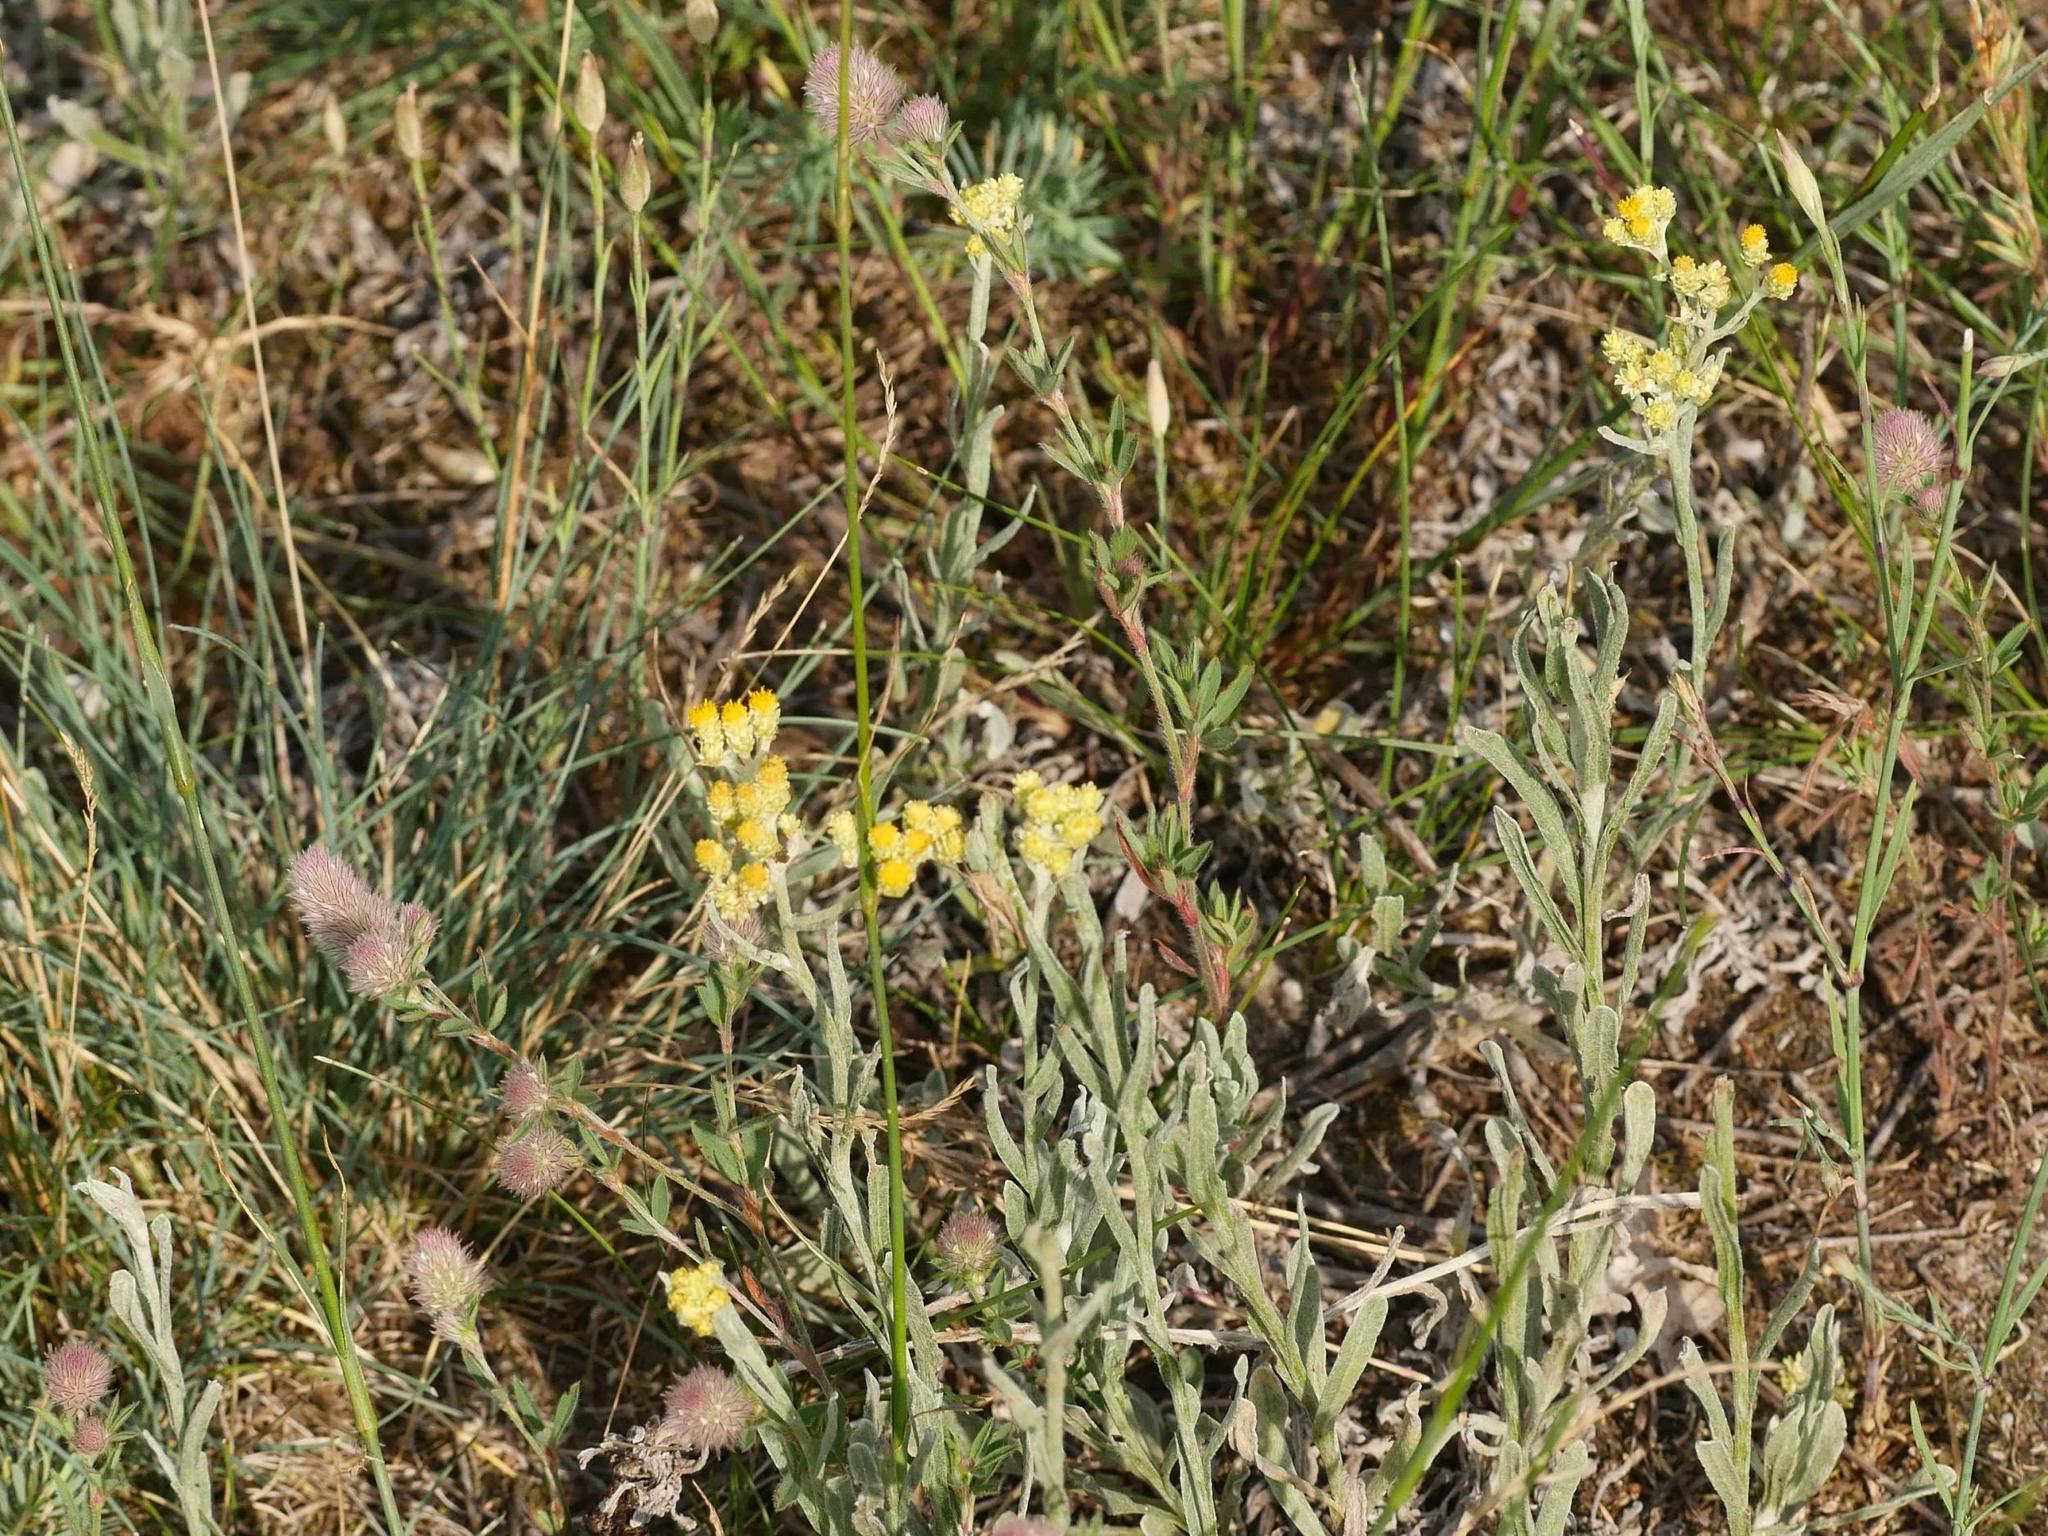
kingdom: Plantae
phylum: Tracheophyta
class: Magnoliopsida
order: Asterales
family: Asteraceae
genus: Helichrysum
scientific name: Helichrysum arenarium
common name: Strawflower
